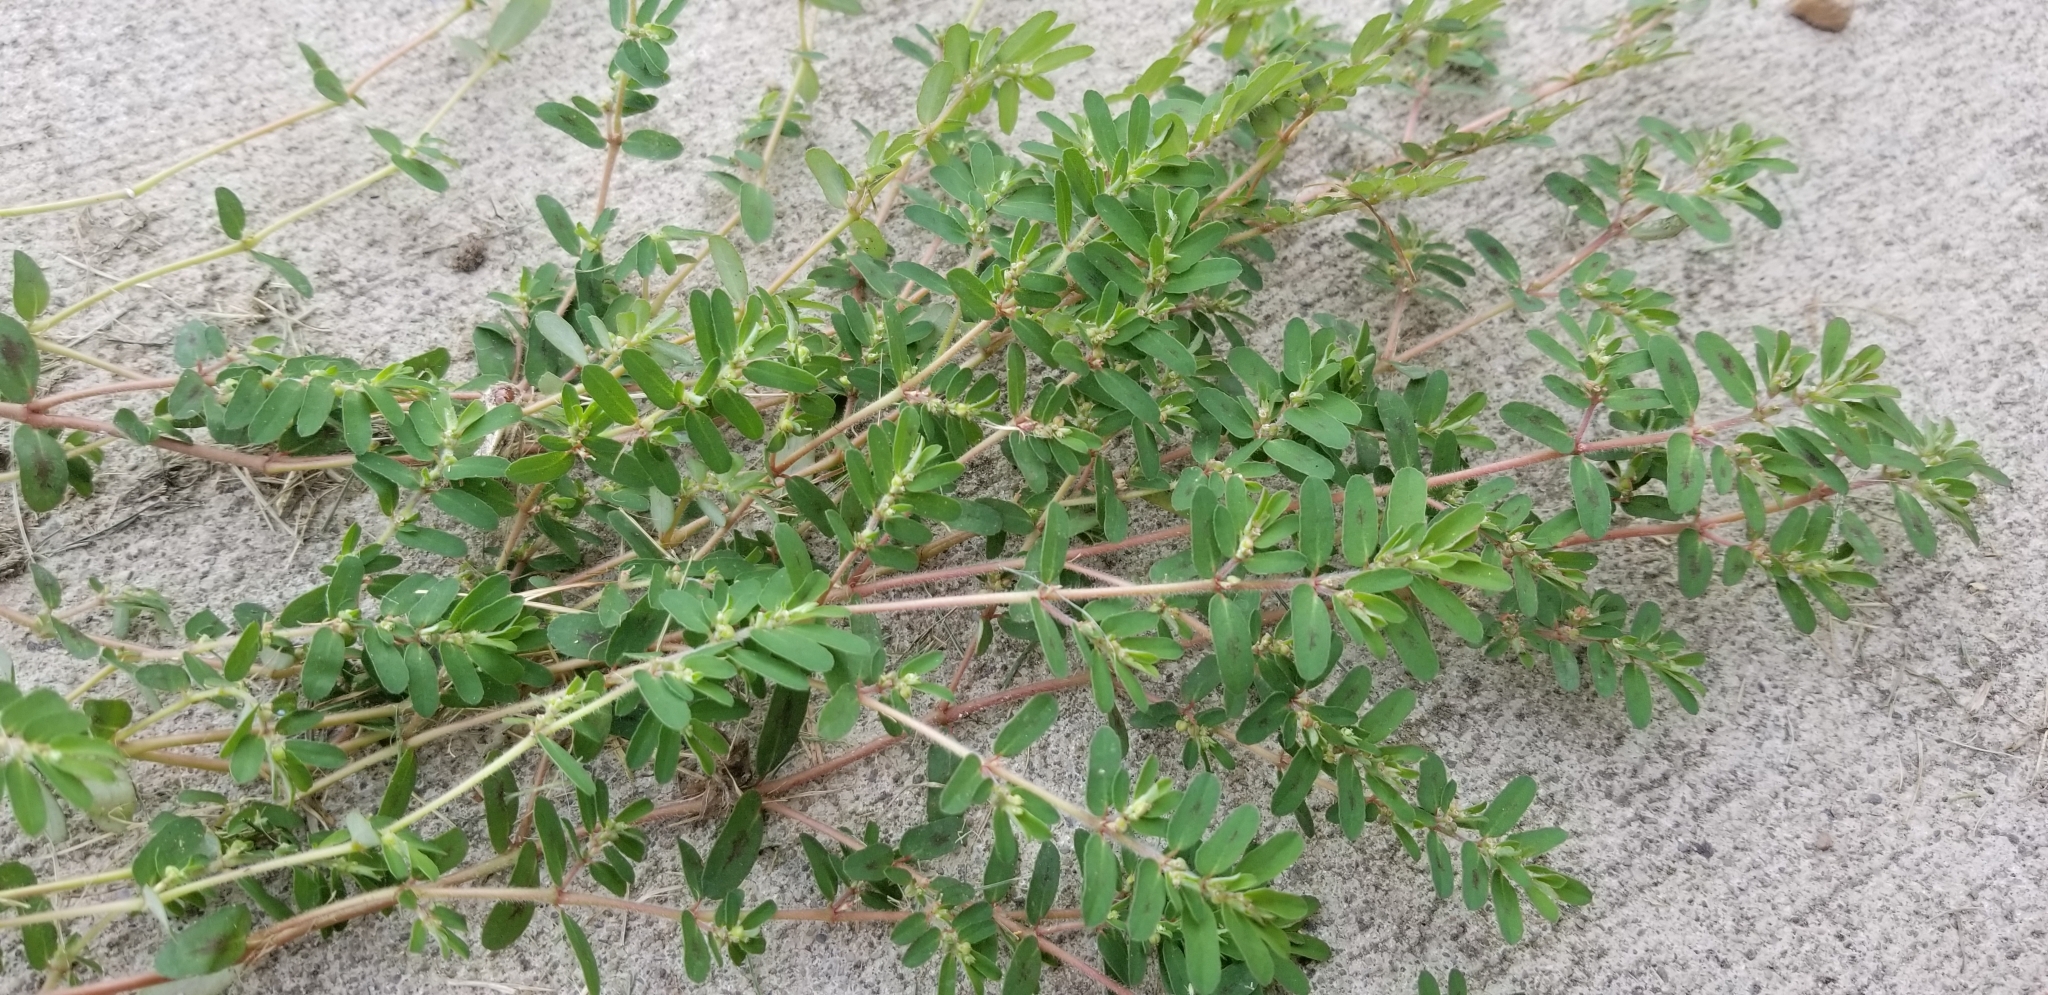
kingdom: Plantae
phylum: Tracheophyta
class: Magnoliopsida
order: Malpighiales
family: Euphorbiaceae
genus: Euphorbia
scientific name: Euphorbia maculata
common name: Spotted spurge
